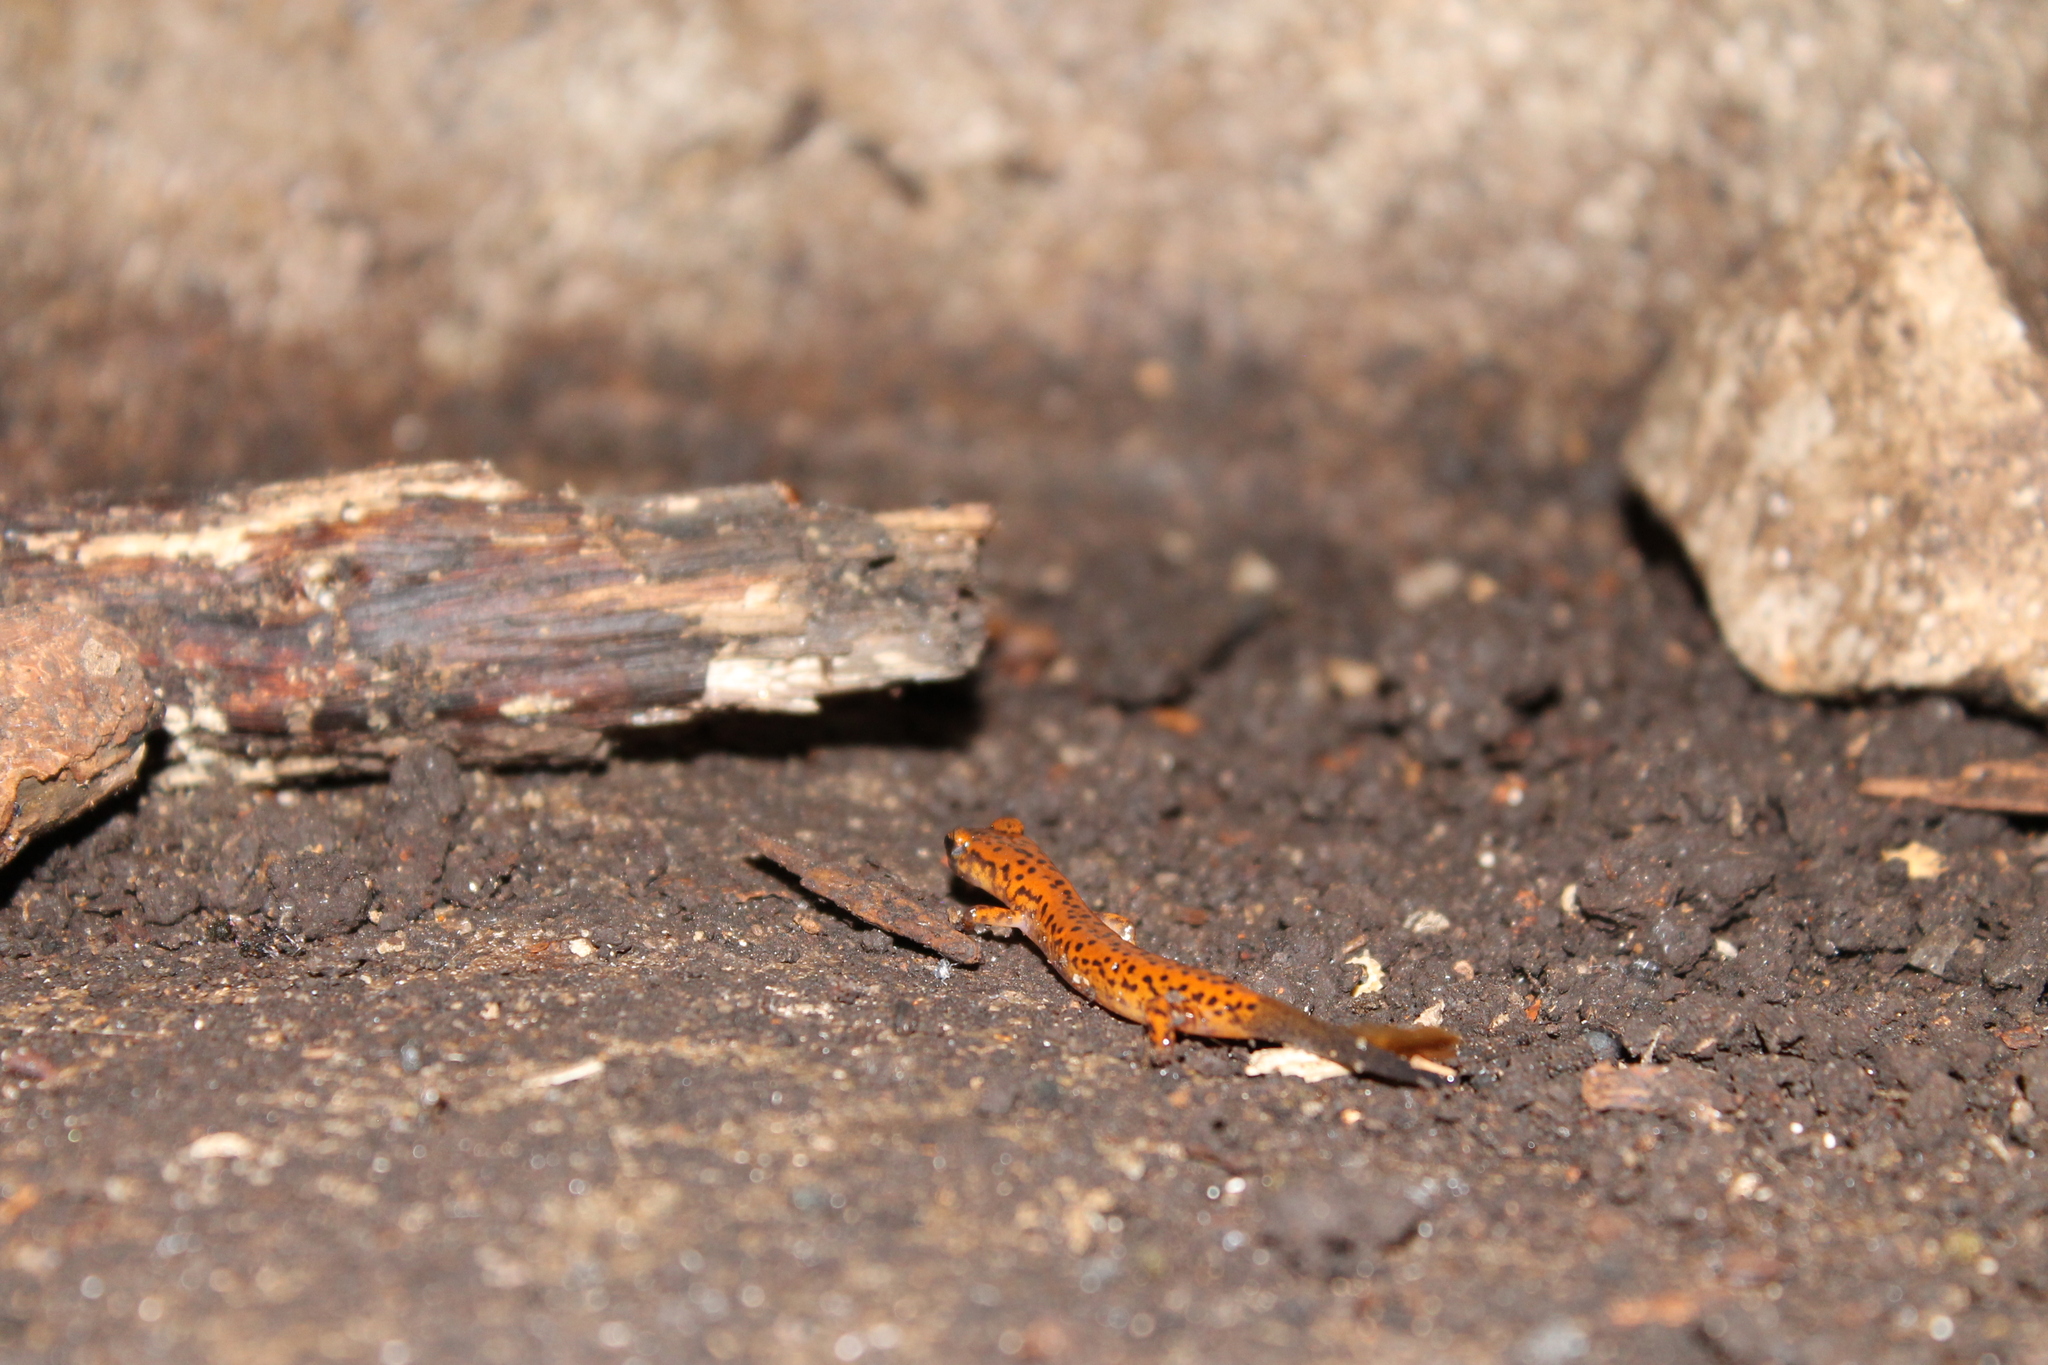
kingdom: Animalia
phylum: Chordata
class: Amphibia
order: Caudata
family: Plethodontidae
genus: Eurycea
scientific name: Eurycea lucifuga
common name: Cave salamander
